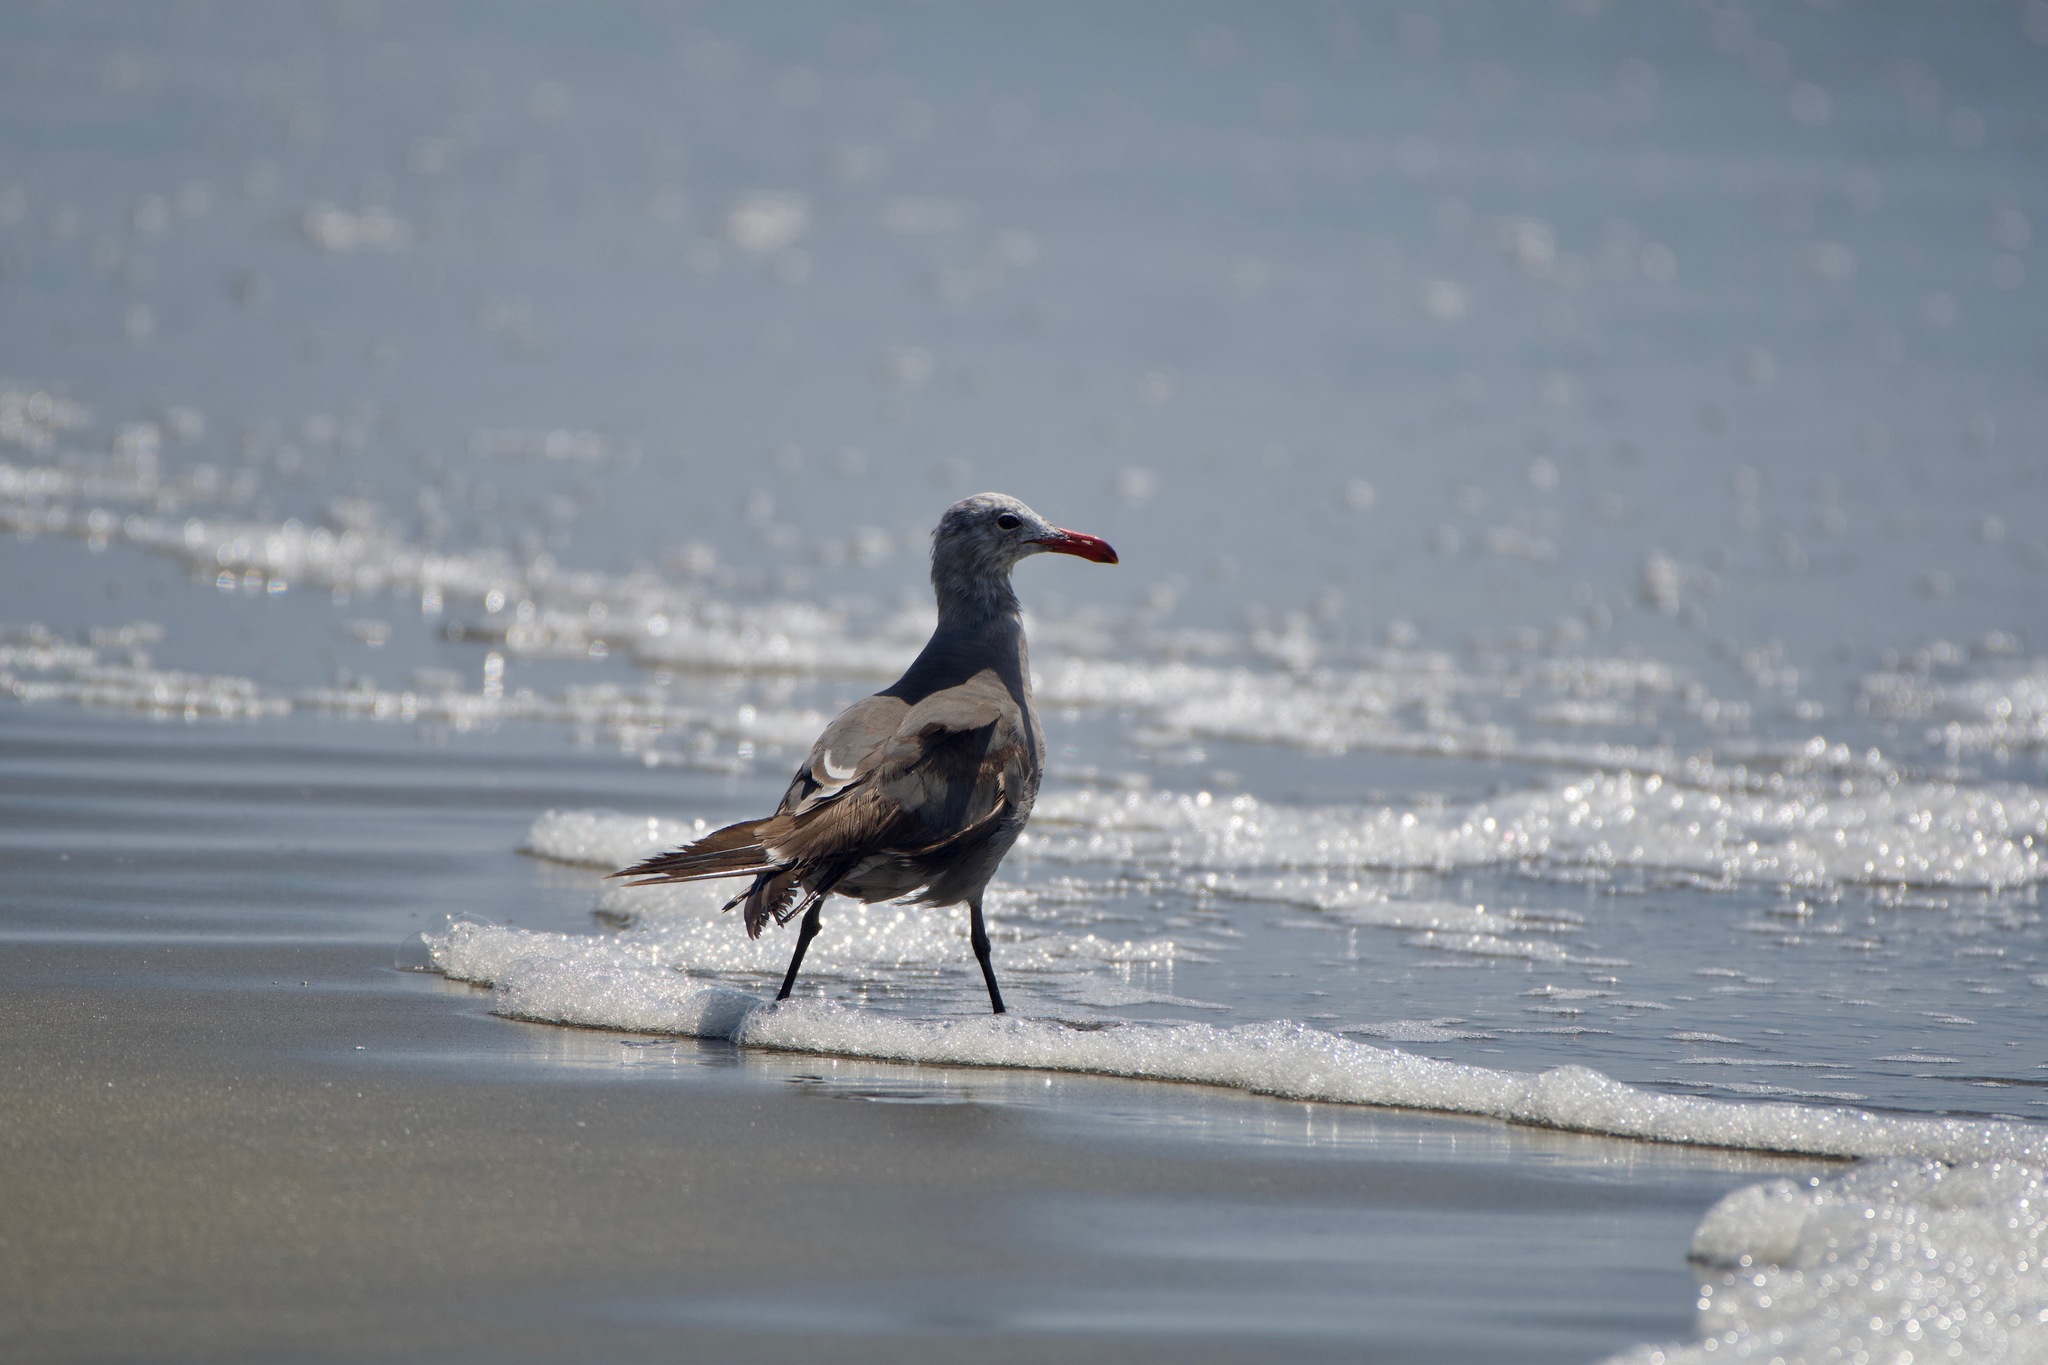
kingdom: Animalia
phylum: Chordata
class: Aves
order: Charadriiformes
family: Laridae
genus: Larus
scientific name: Larus heermanni
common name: Heermann's gull
